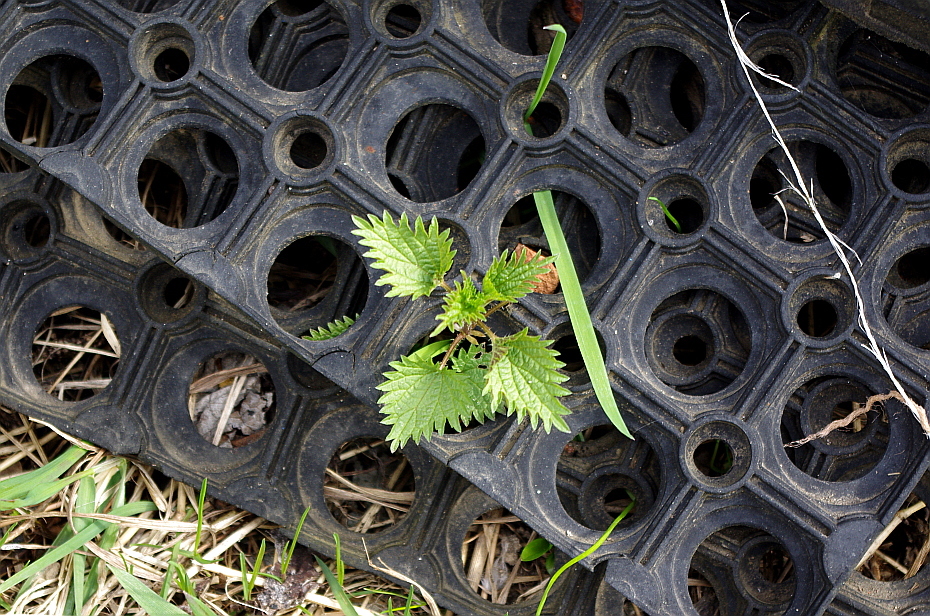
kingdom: Plantae
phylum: Tracheophyta
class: Magnoliopsida
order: Rosales
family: Urticaceae
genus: Urtica
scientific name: Urtica dioica
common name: Common nettle
